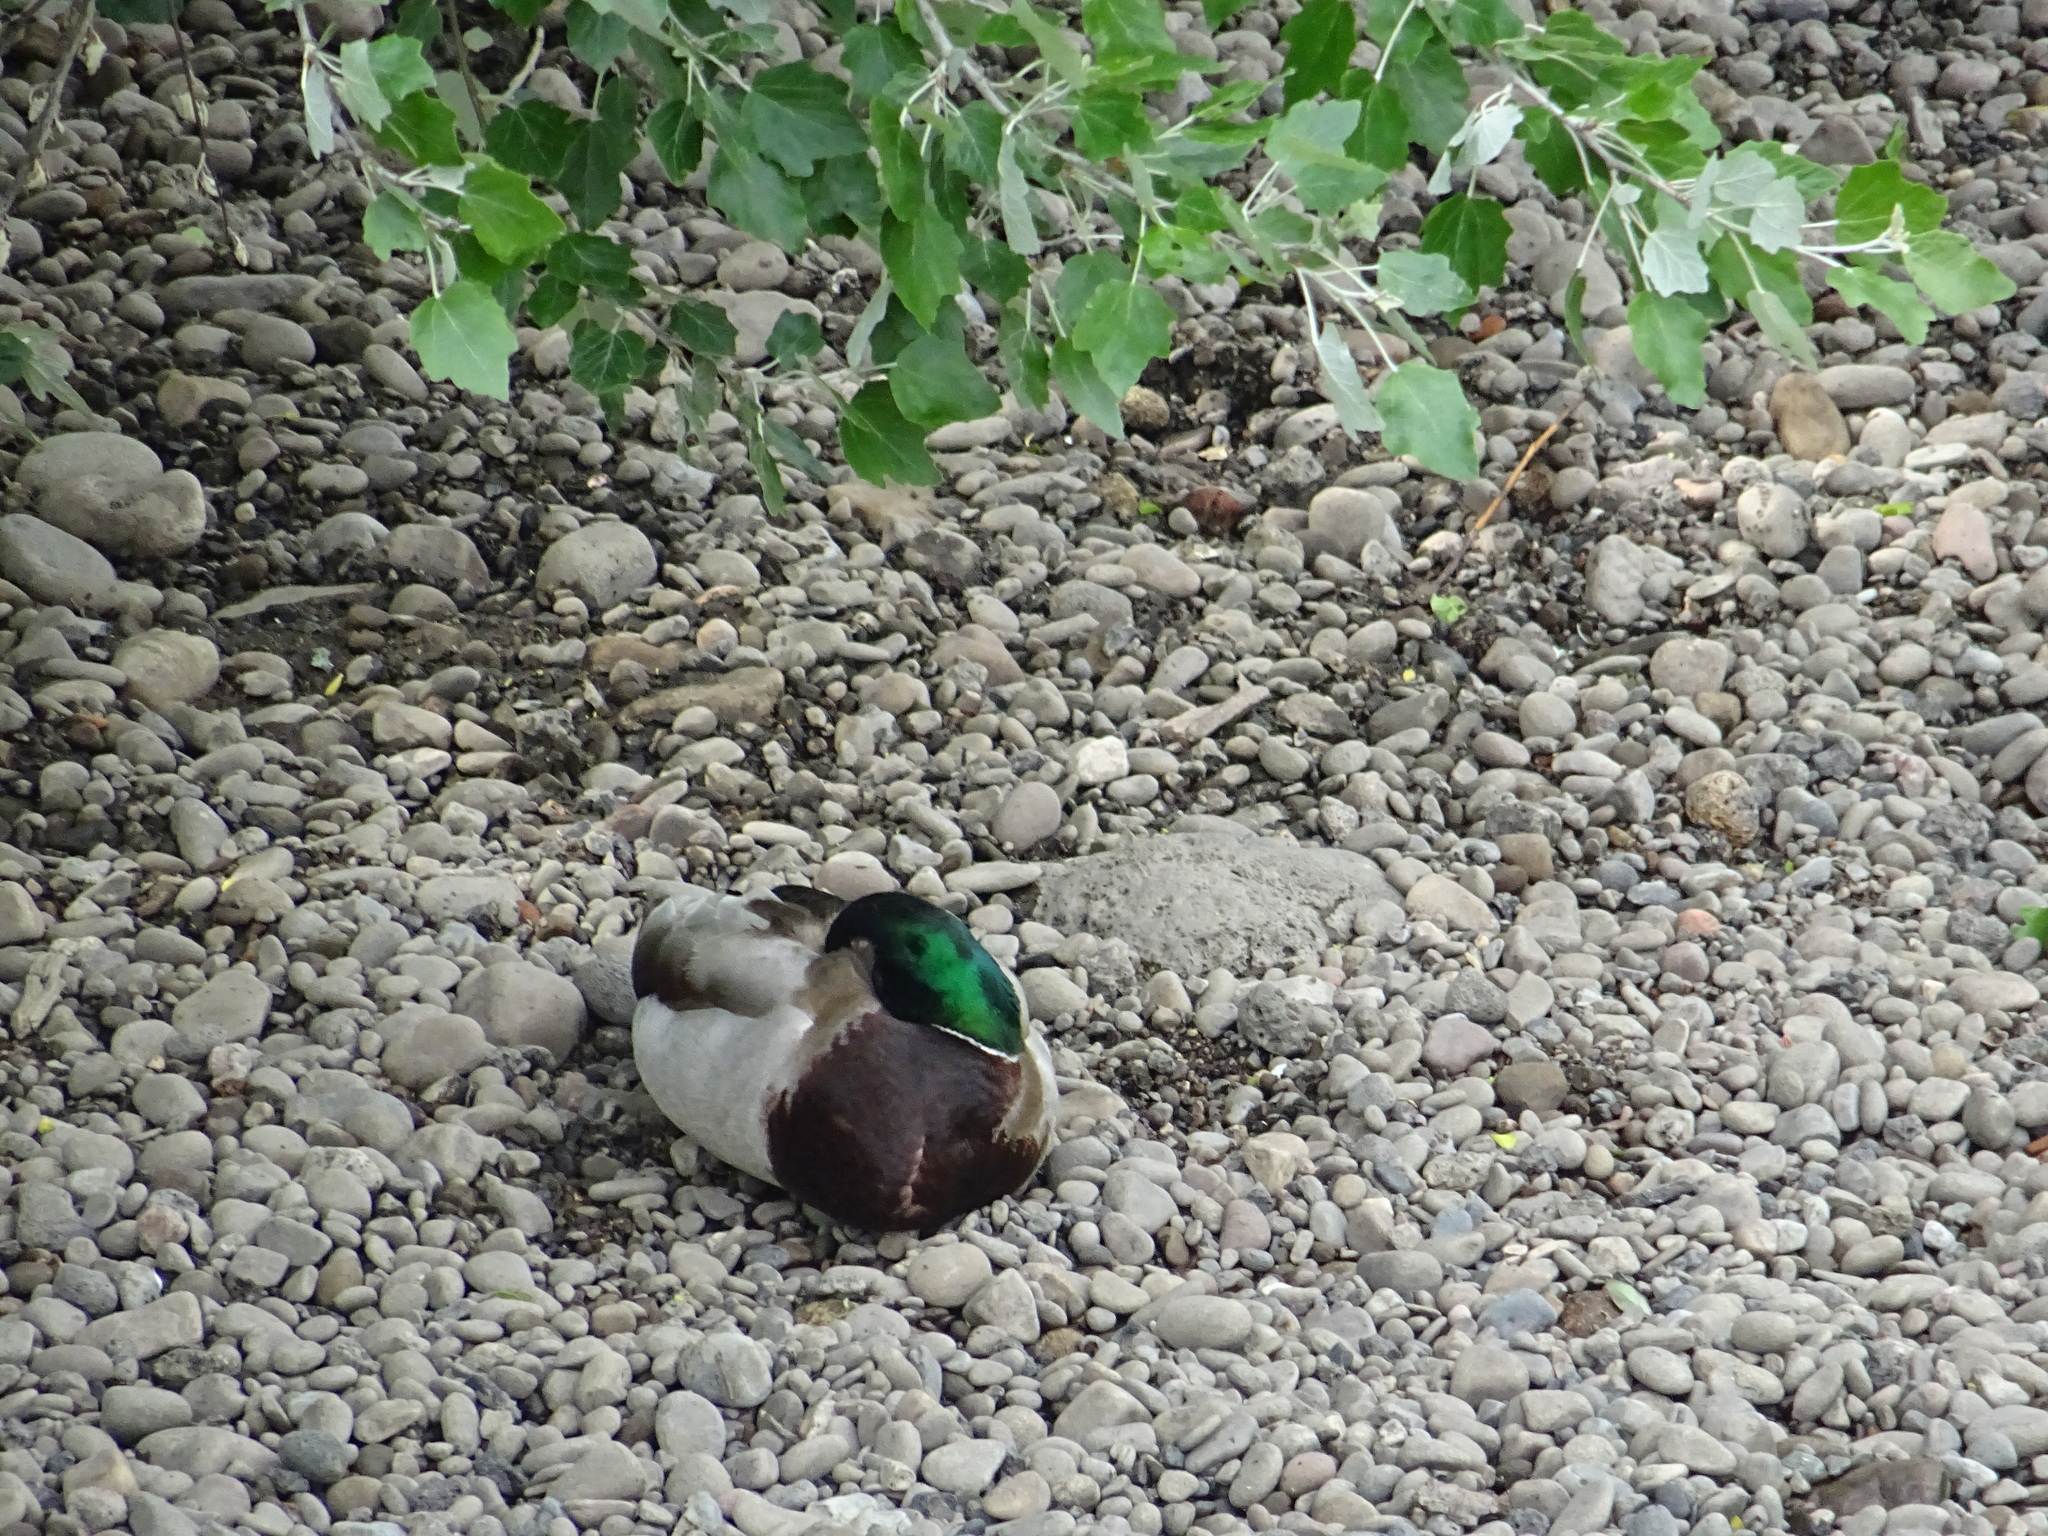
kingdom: Animalia
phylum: Chordata
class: Aves
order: Anseriformes
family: Anatidae
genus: Anas
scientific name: Anas platyrhynchos
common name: Mallard
